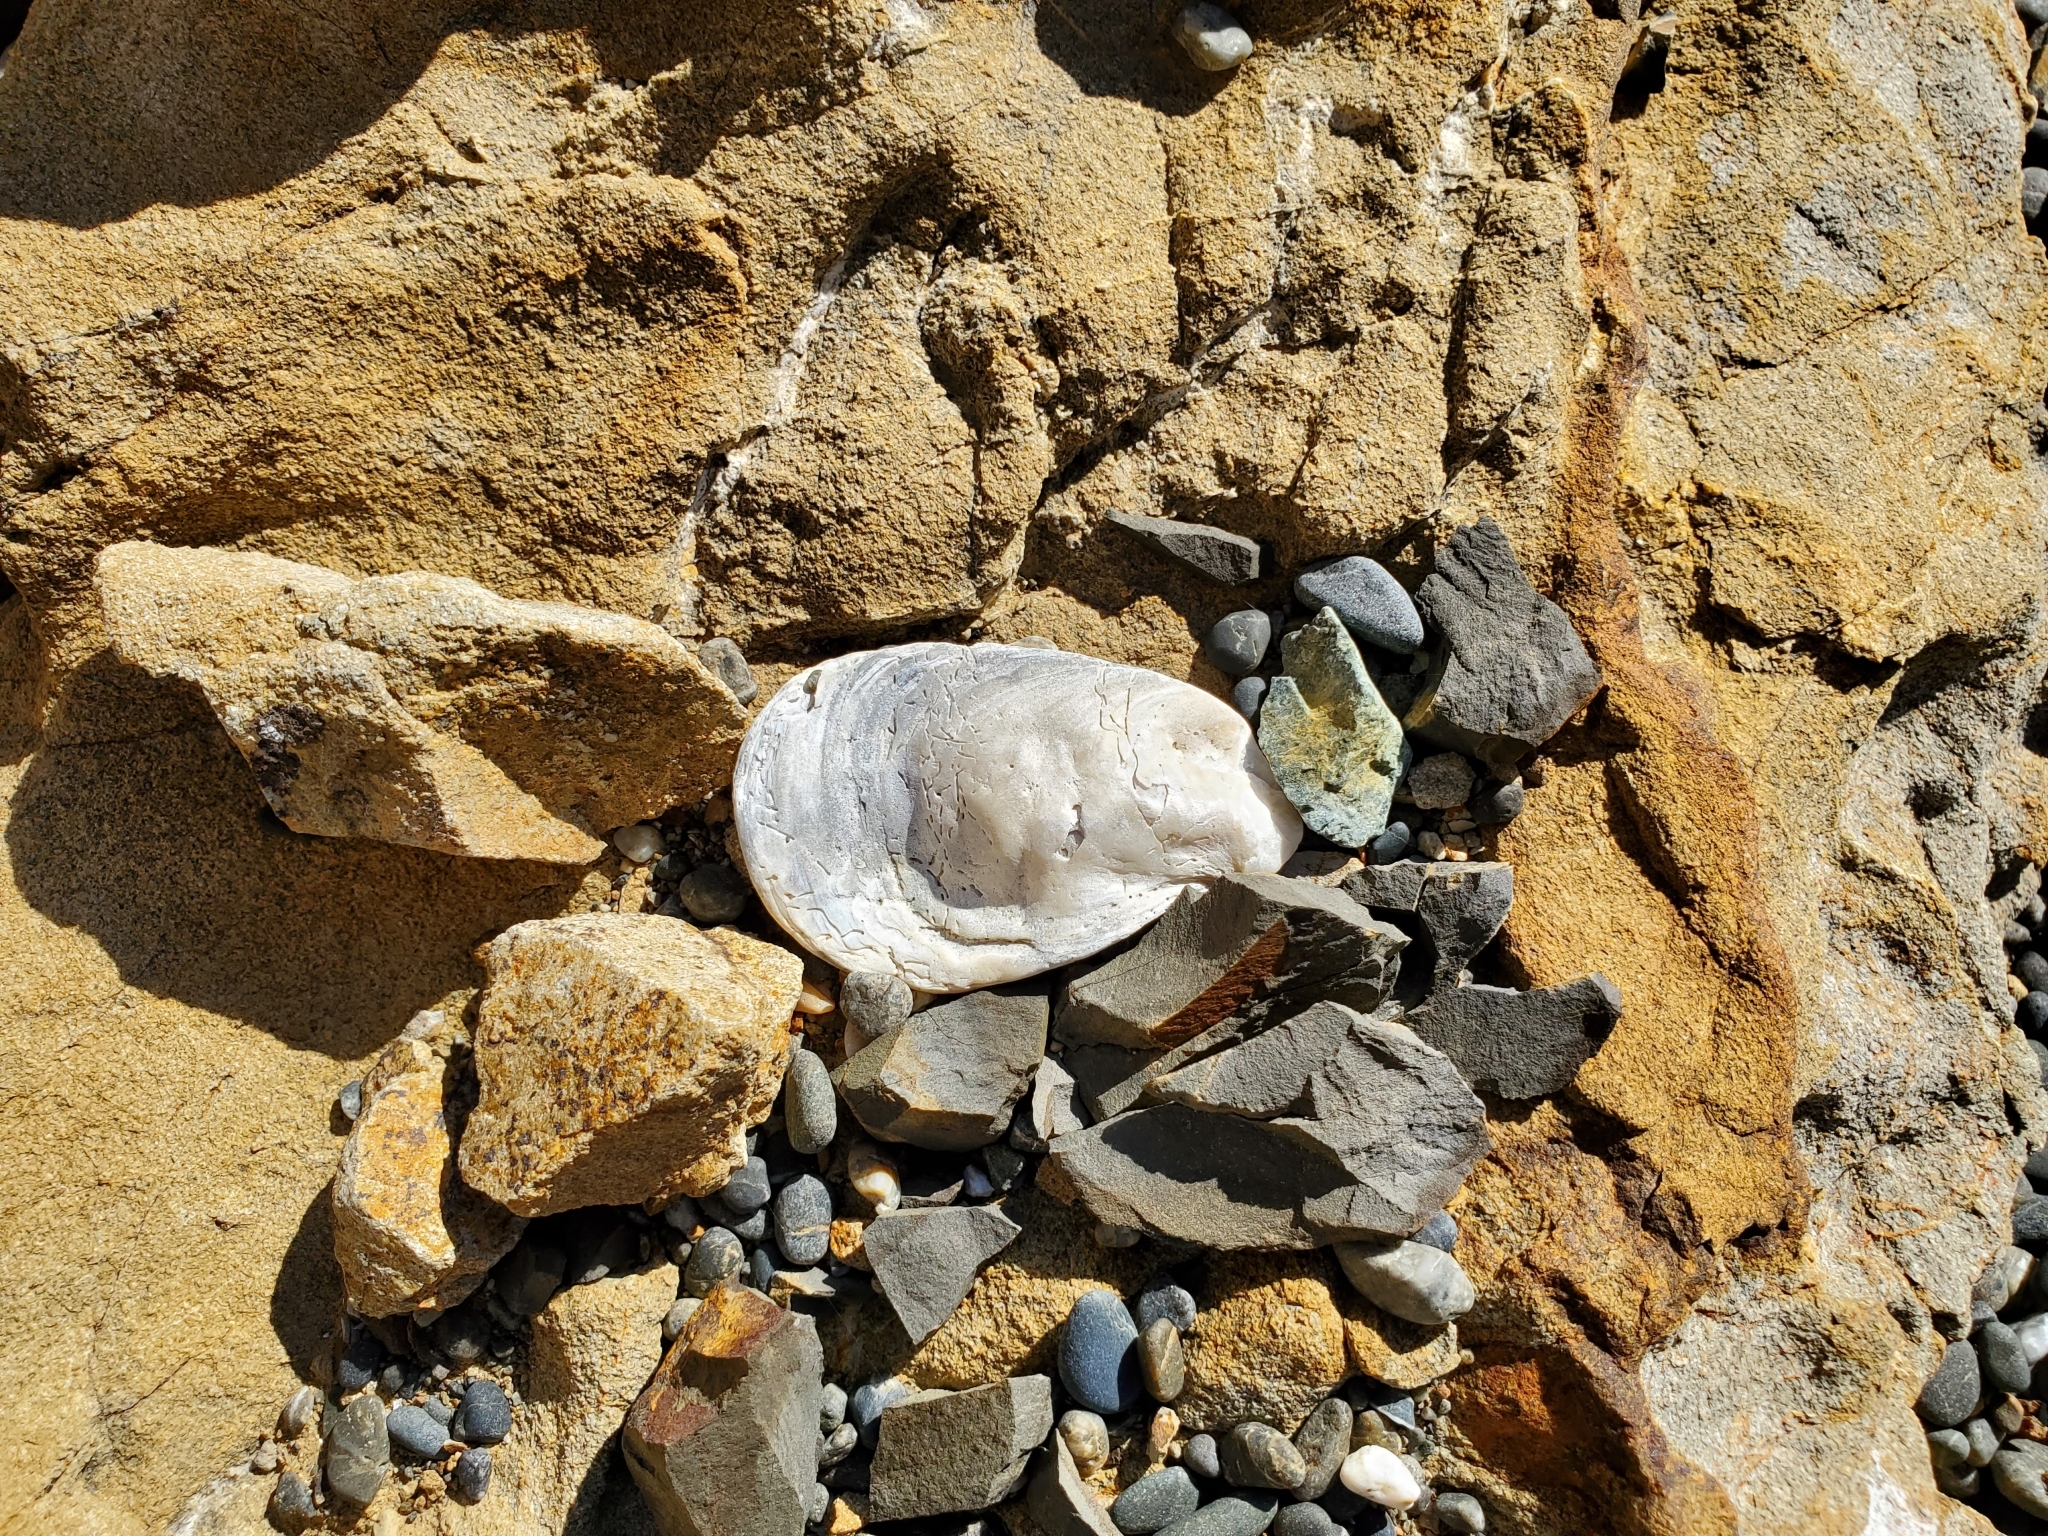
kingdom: Animalia
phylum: Mollusca
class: Bivalvia
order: Ostreida
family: Ostreidae
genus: Ostrea
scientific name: Ostrea chilensis
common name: Chilean oyster
